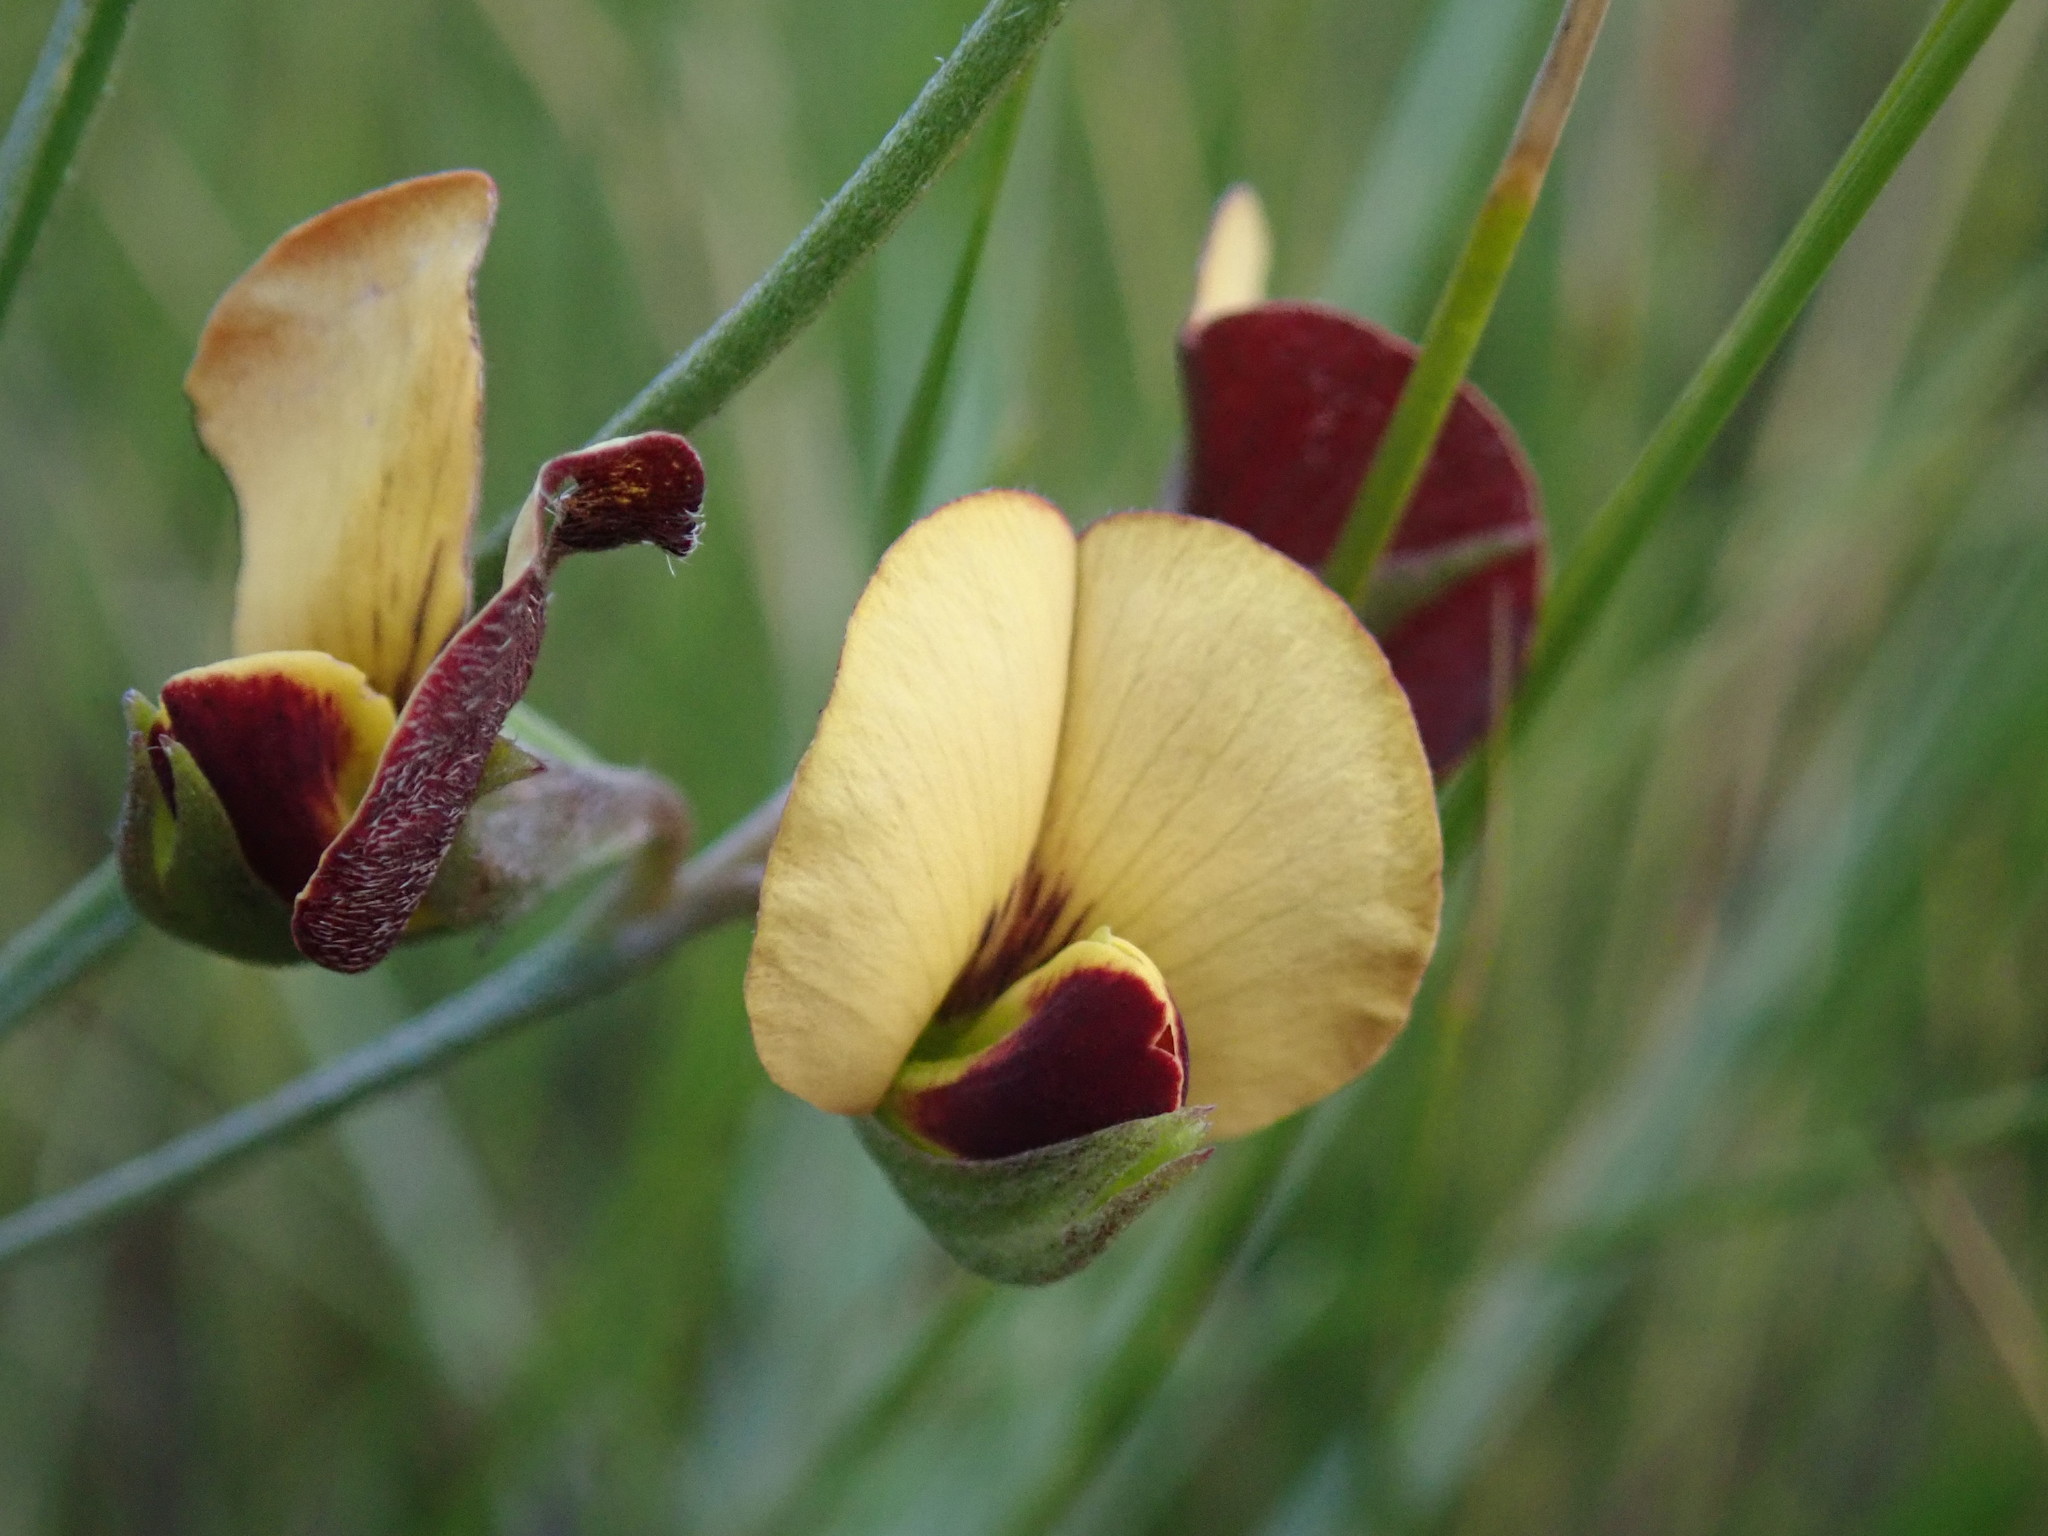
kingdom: Plantae
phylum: Tracheophyta
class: Magnoliopsida
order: Fabales
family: Fabaceae
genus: Argyrolobium
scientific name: Argyrolobium tuberosum
